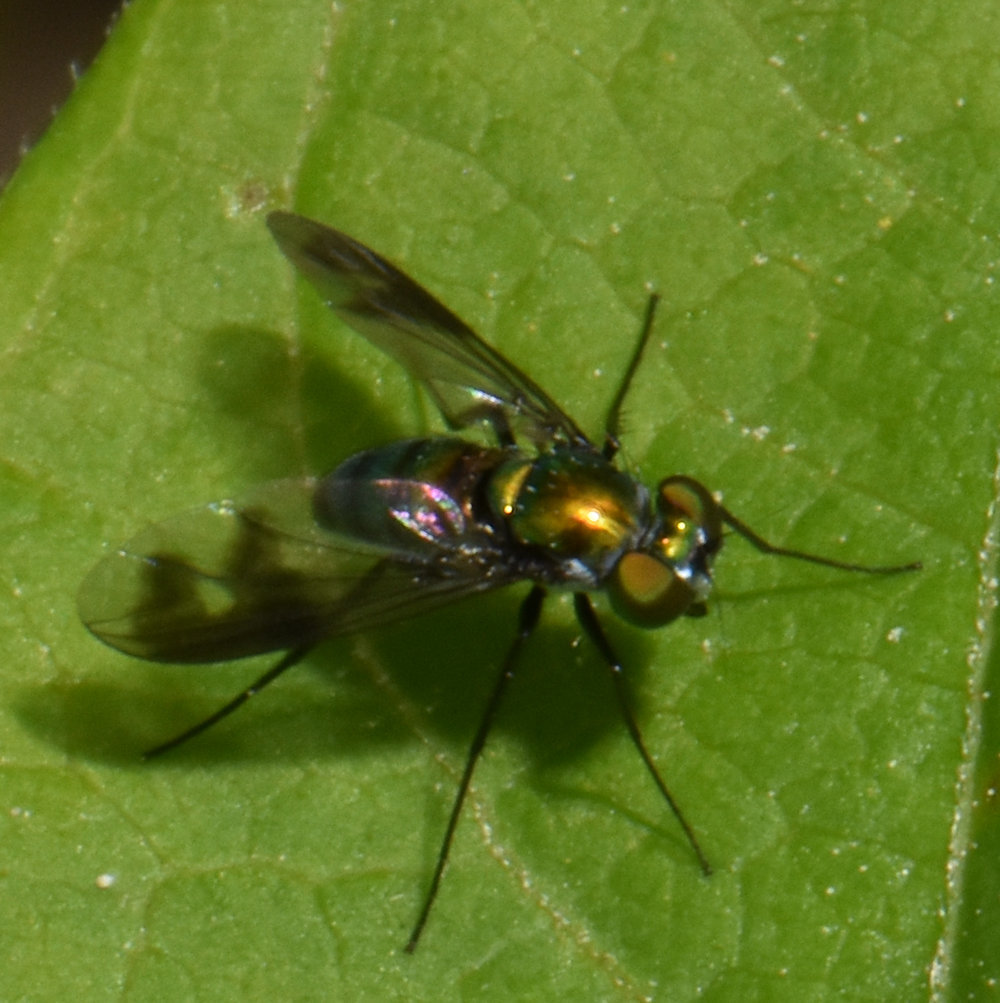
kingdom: Animalia
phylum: Arthropoda
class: Insecta
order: Diptera
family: Dolichopodidae
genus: Condylostylus
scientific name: Condylostylus patibulatus
